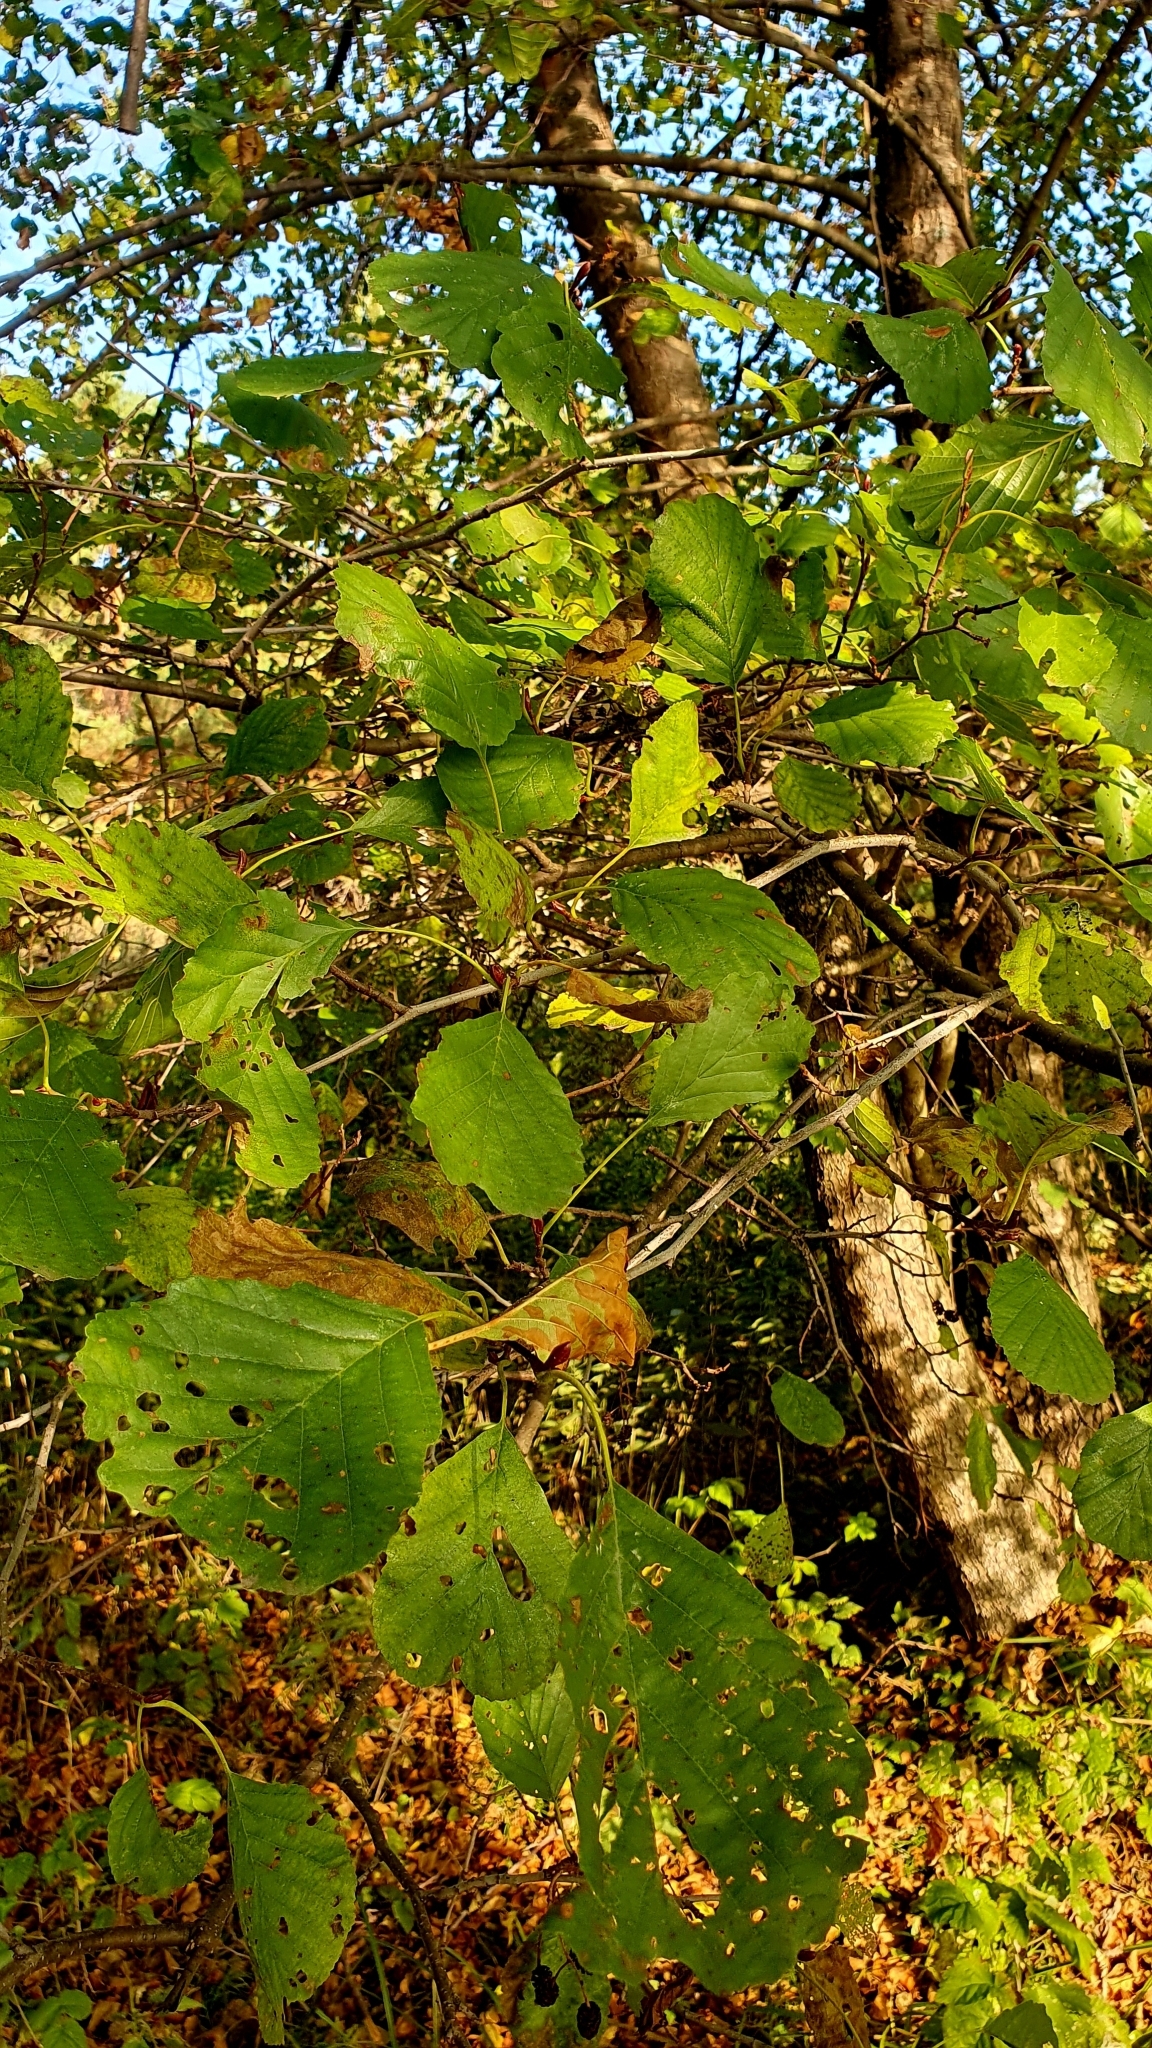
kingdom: Plantae
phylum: Tracheophyta
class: Magnoliopsida
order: Fagales
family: Betulaceae
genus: Alnus
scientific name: Alnus glutinosa
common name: Black alder
